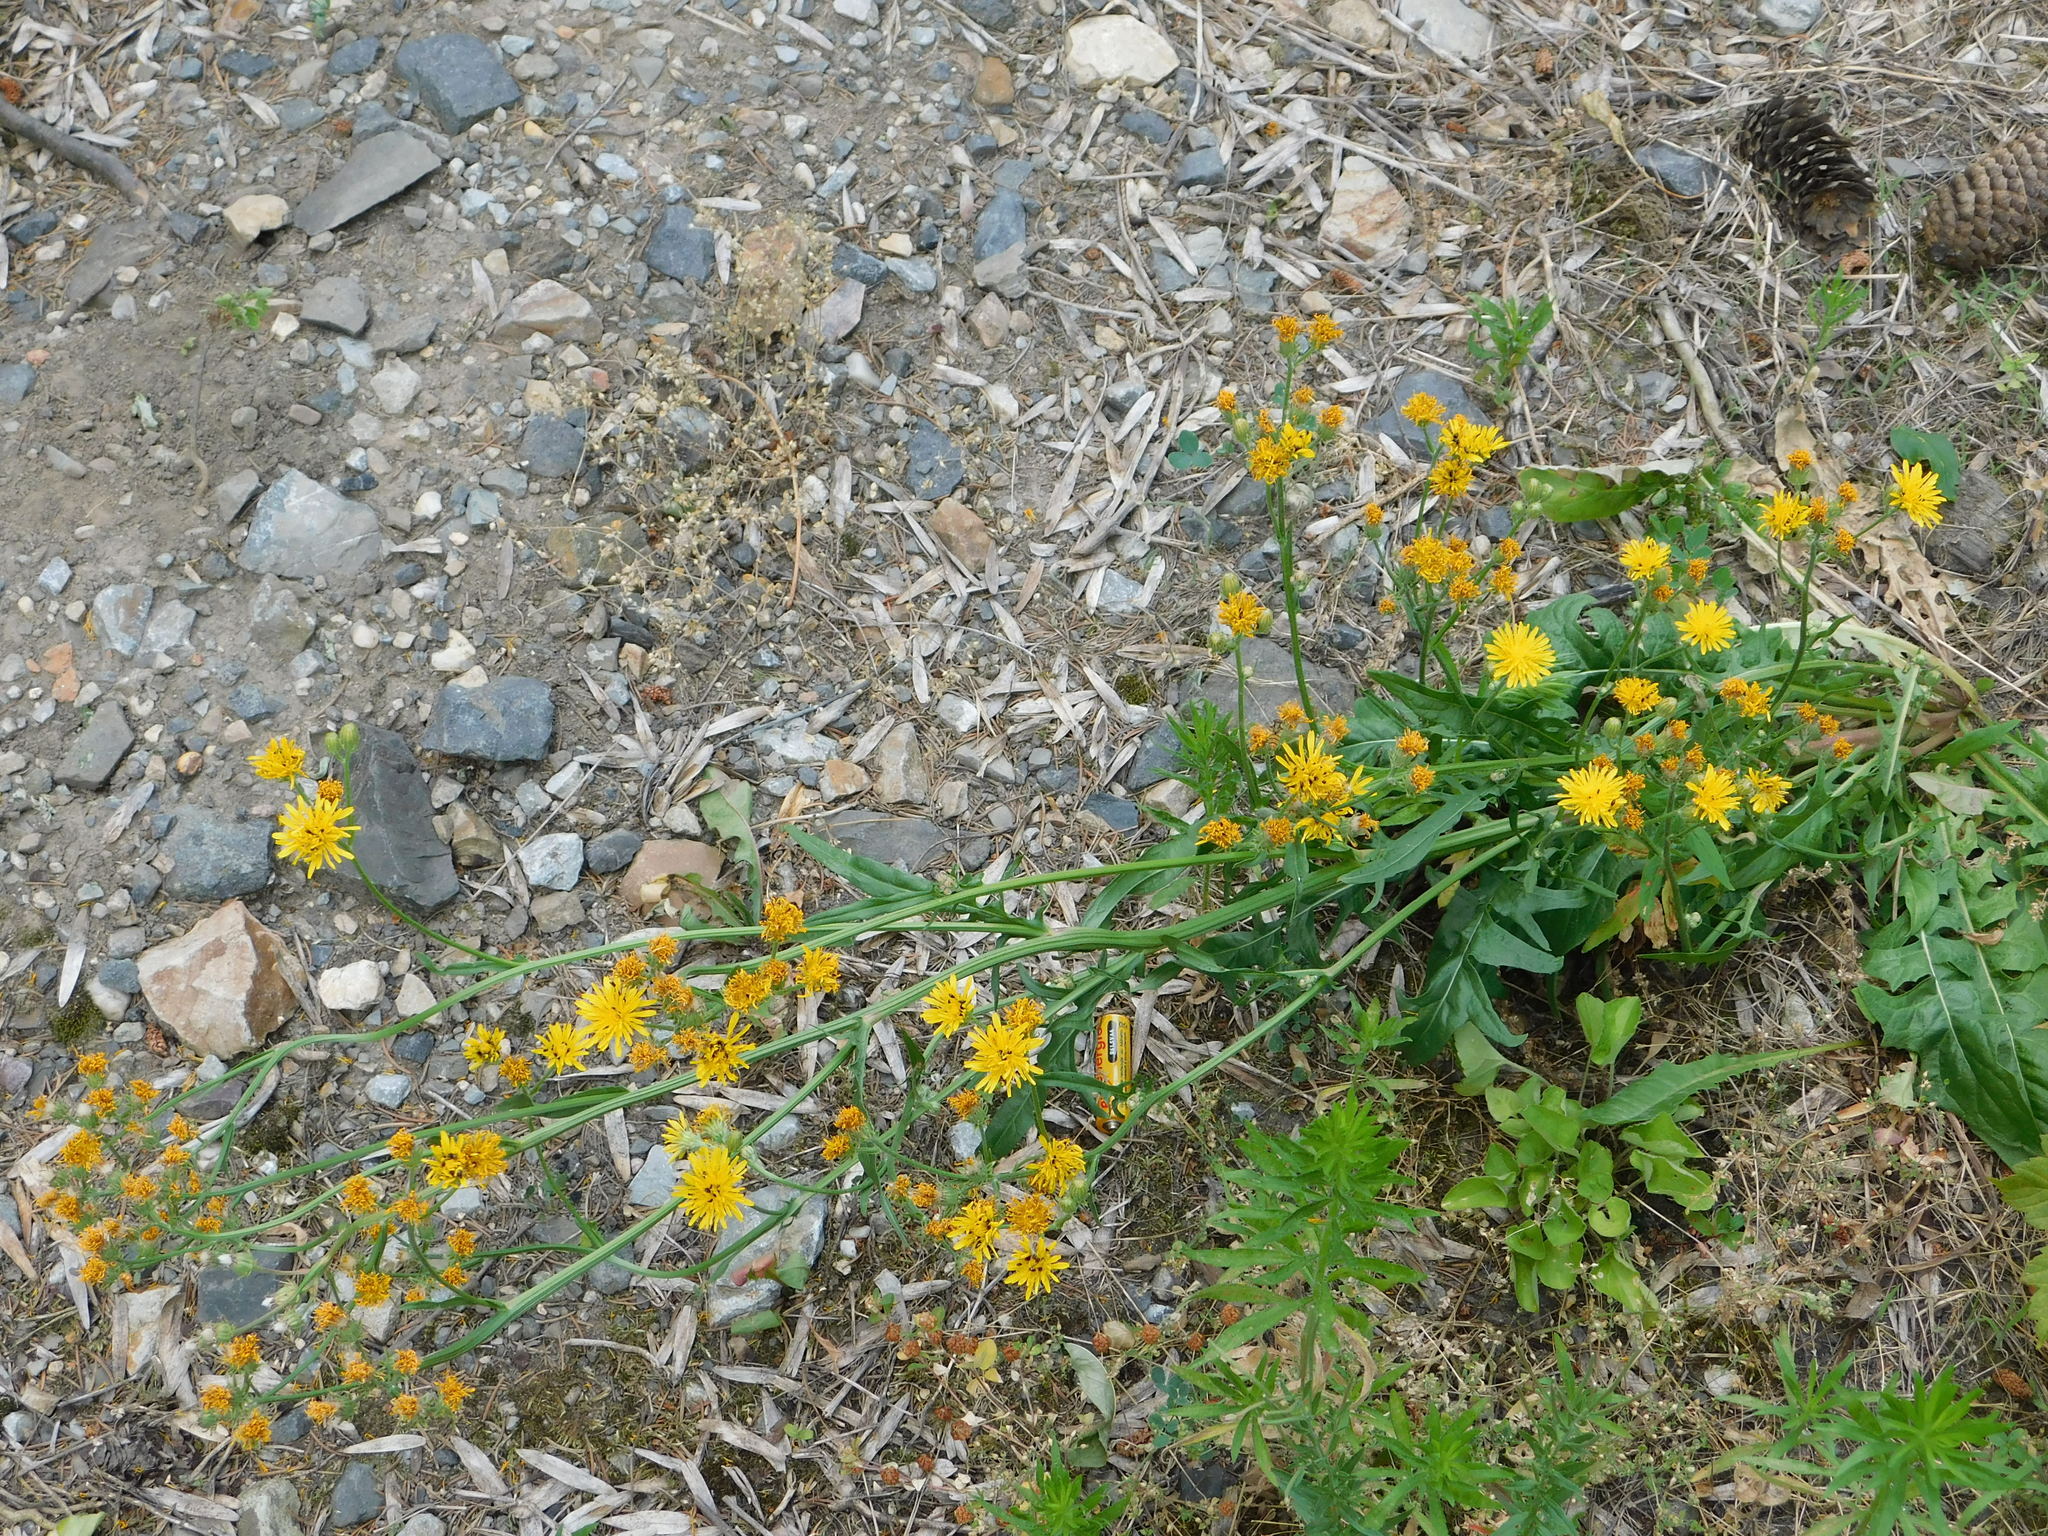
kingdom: Plantae
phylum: Tracheophyta
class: Magnoliopsida
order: Asterales
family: Asteraceae
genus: Crepis
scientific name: Crepis biennis
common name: Rough hawk's-beard
